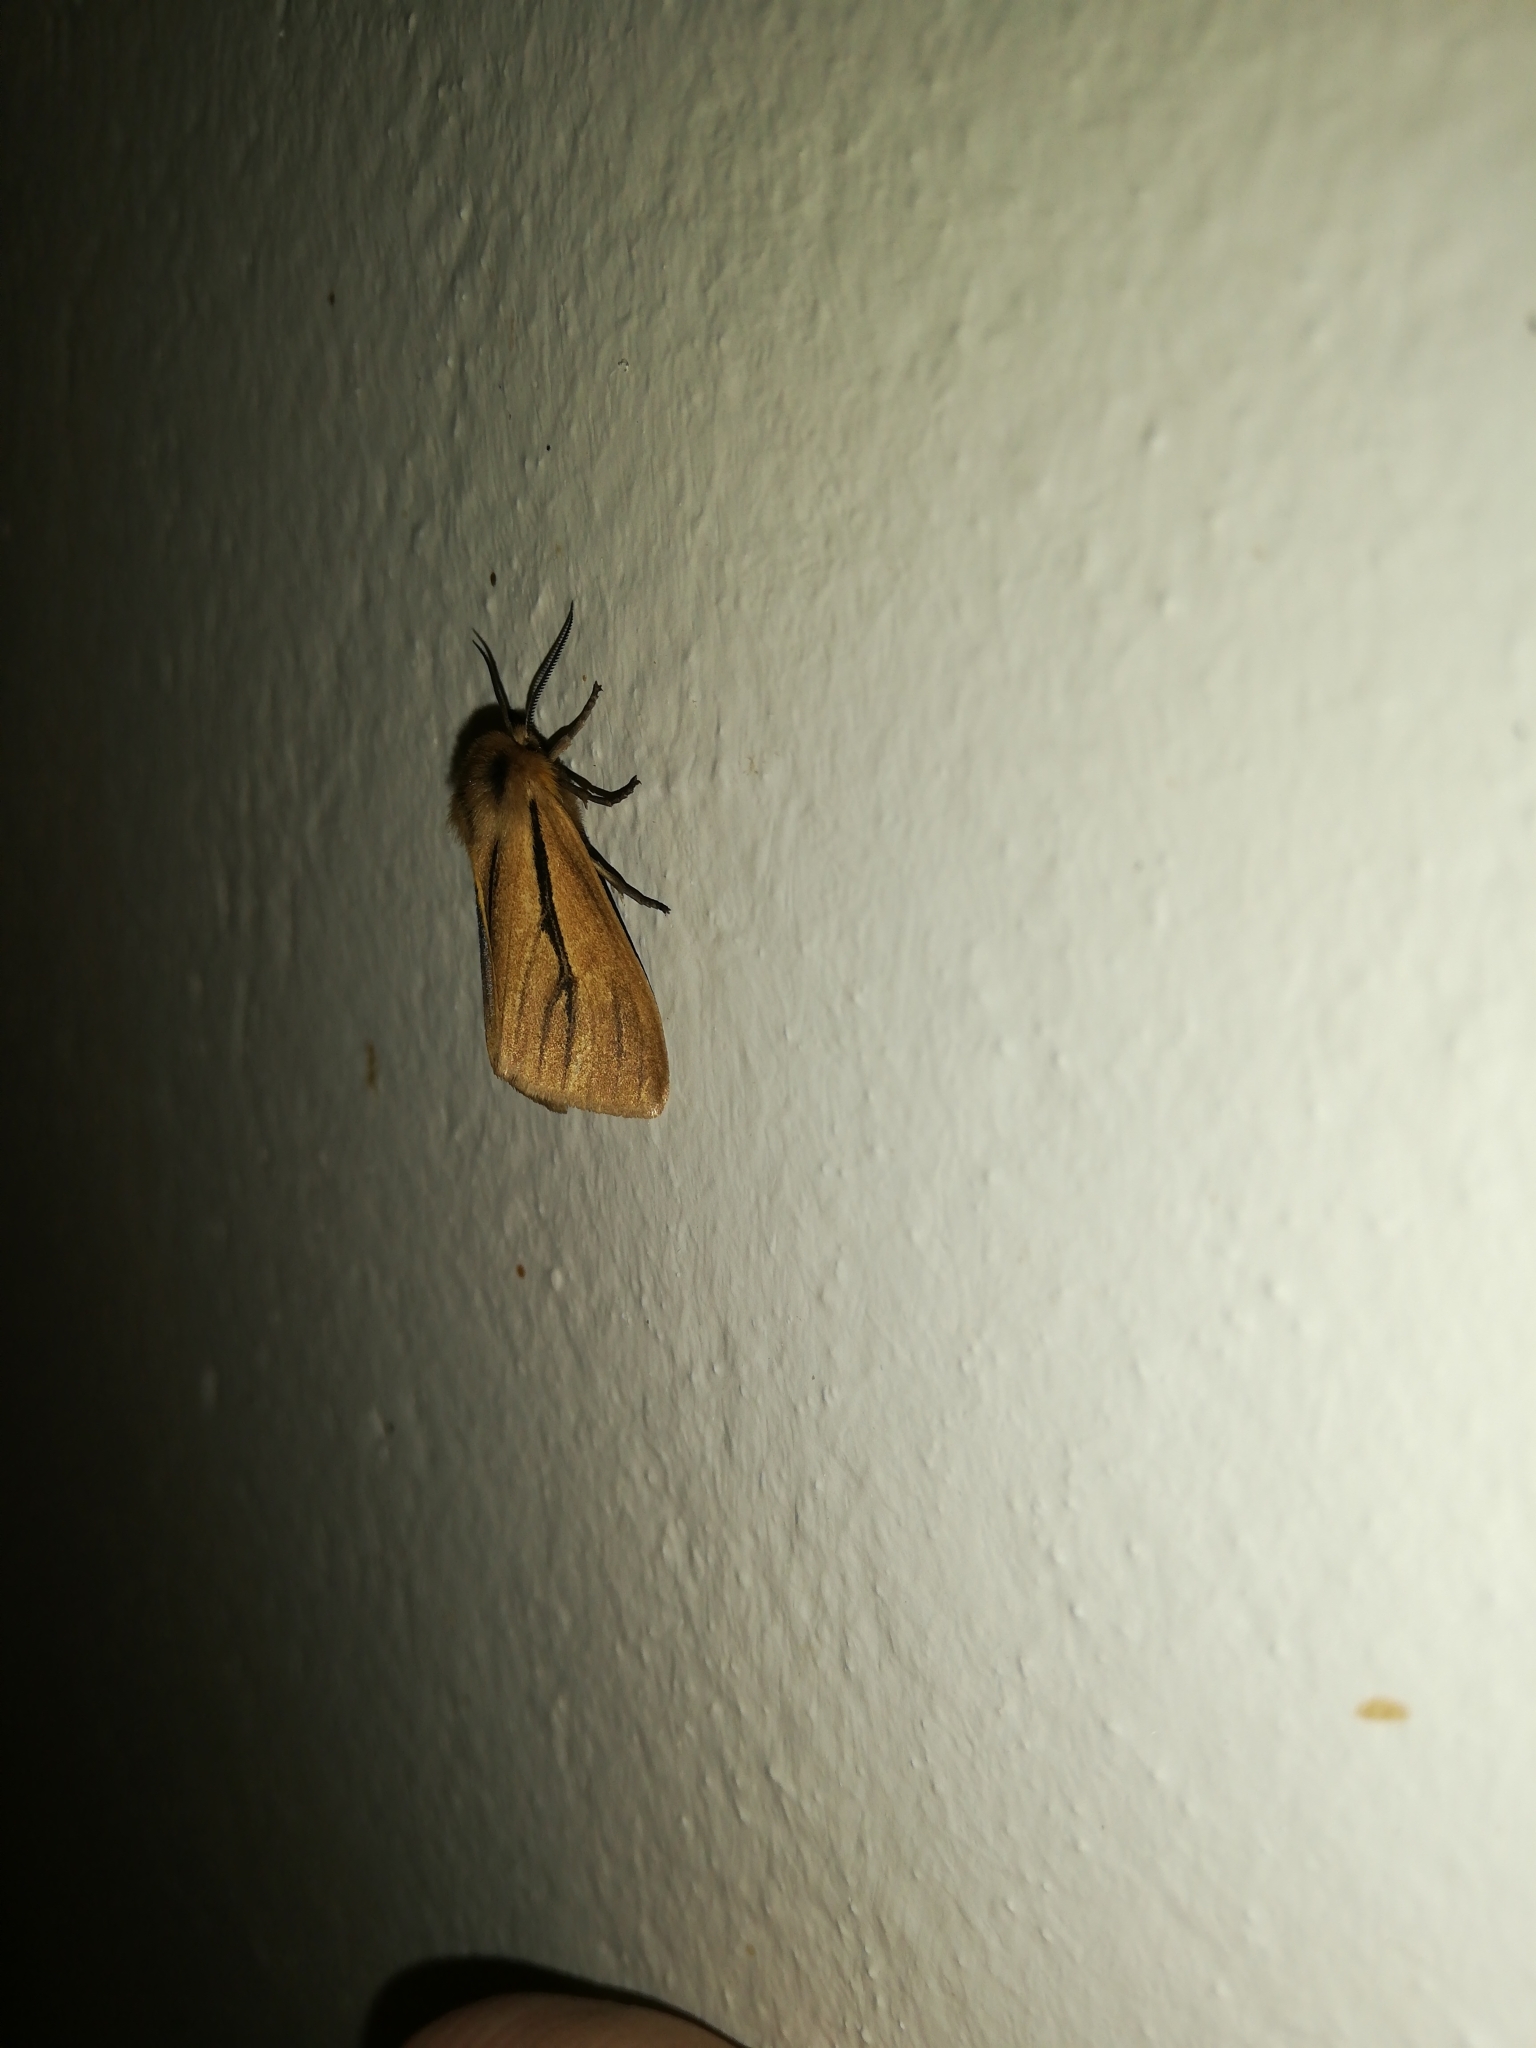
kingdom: Animalia
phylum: Arthropoda
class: Insecta
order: Lepidoptera
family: Erebidae
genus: Popoudina
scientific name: Popoudina linea
